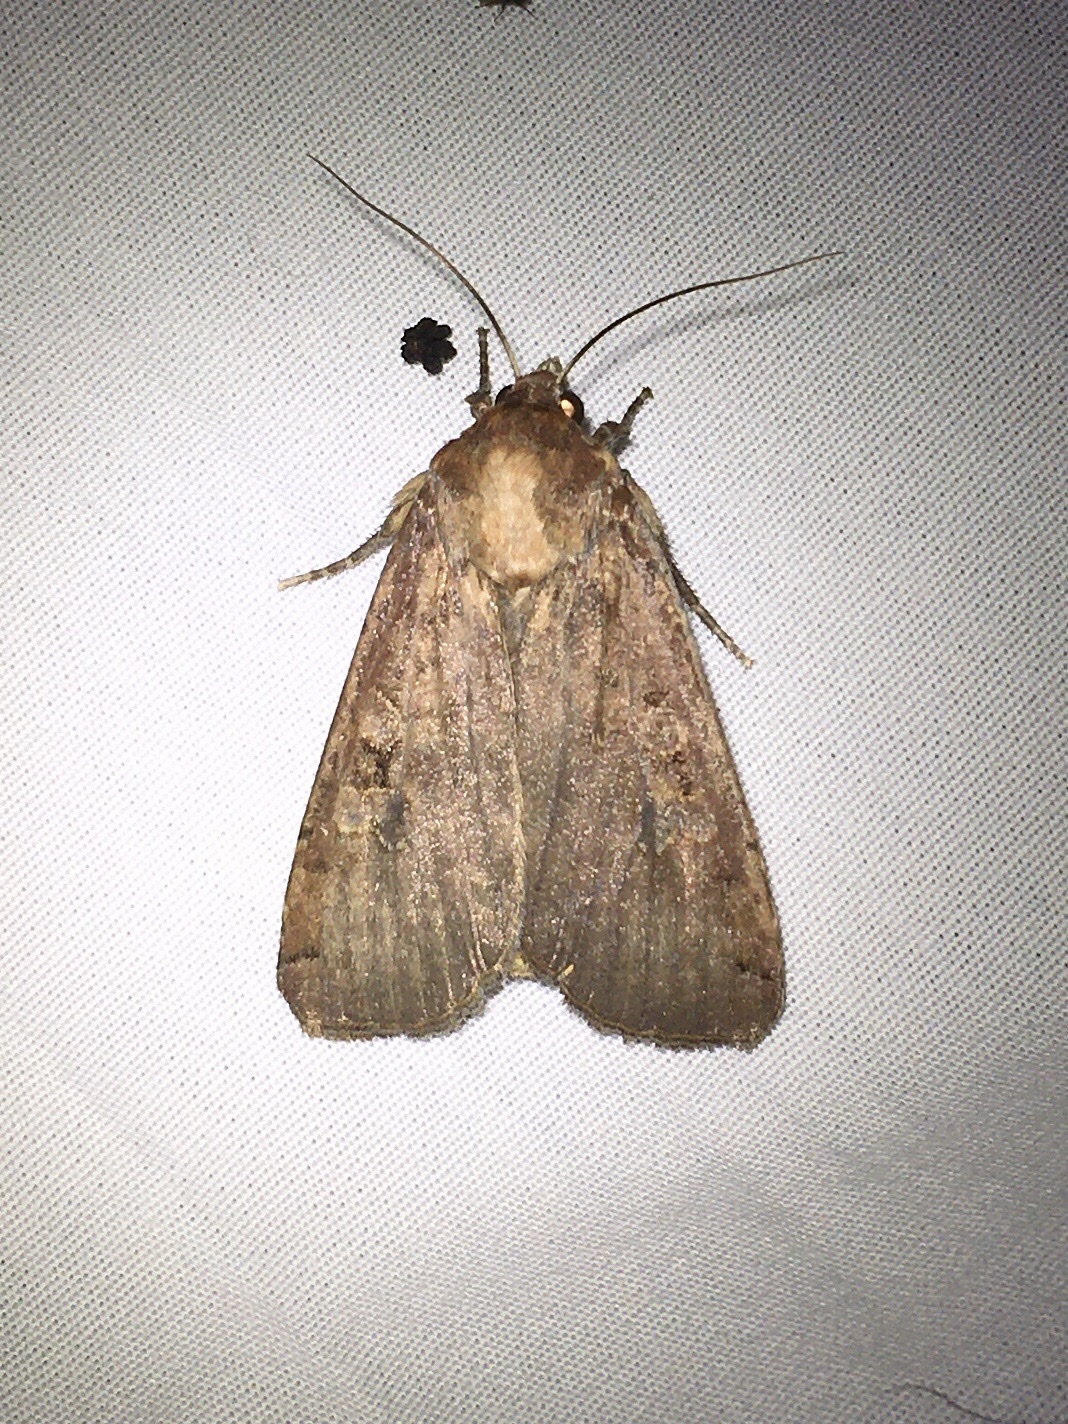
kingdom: Animalia
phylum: Arthropoda
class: Insecta
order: Lepidoptera
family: Noctuidae
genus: Noctua
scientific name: Noctua pronuba
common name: Large yellow underwing
